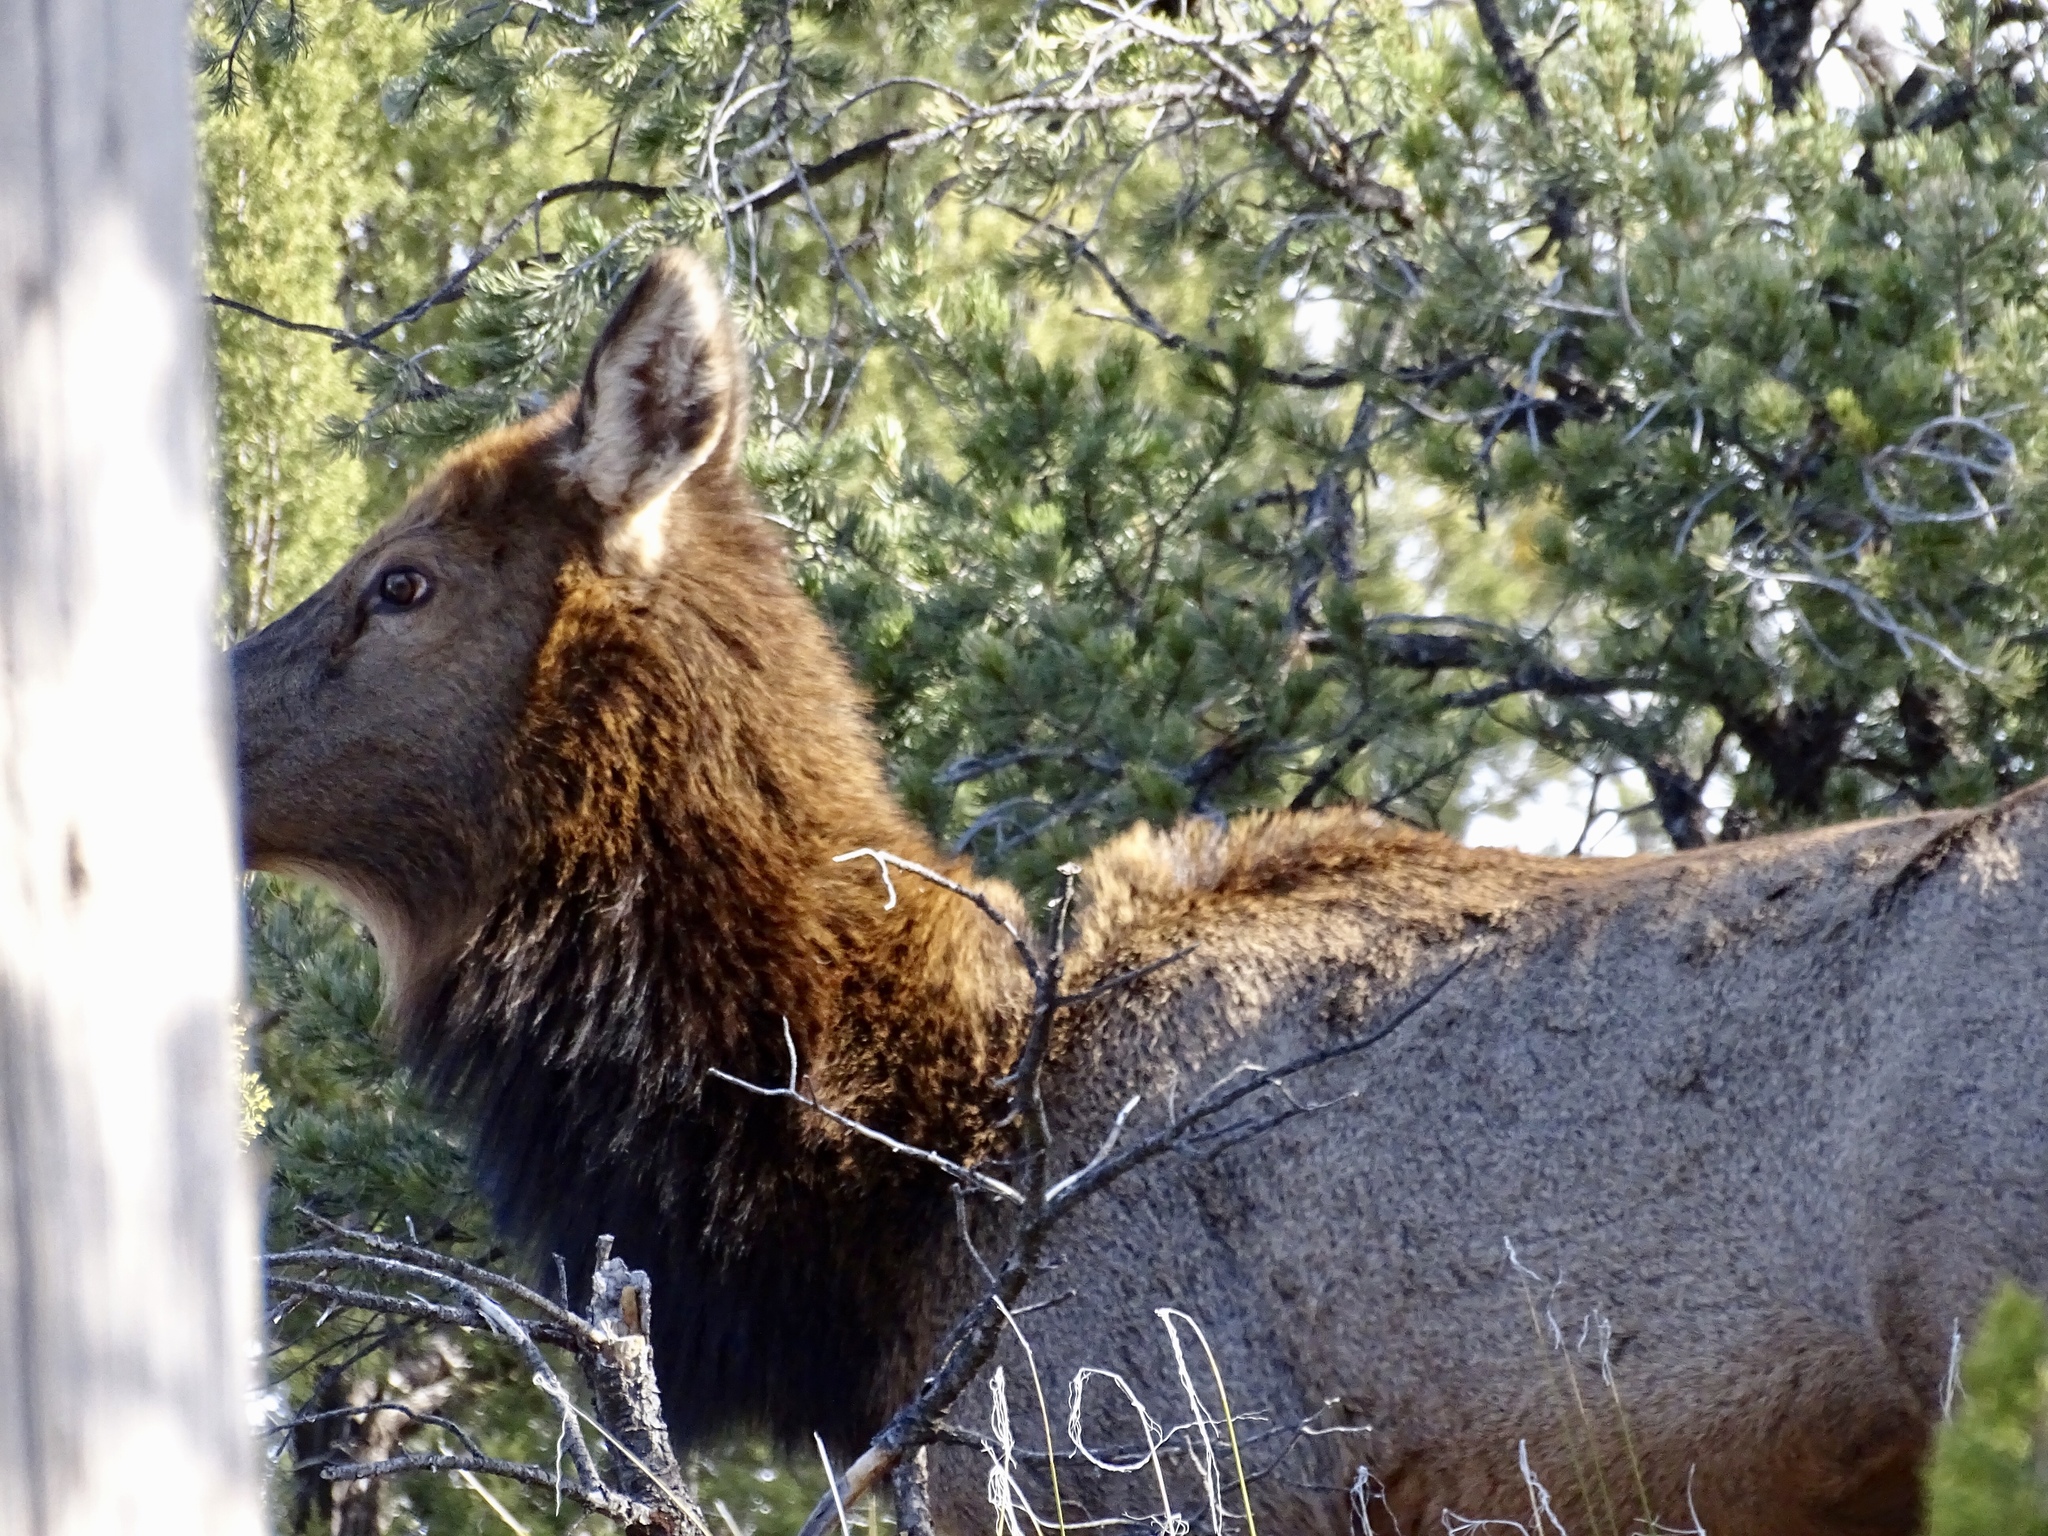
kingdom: Animalia
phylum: Chordata
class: Mammalia
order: Artiodactyla
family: Cervidae
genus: Cervus
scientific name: Cervus elaphus
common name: Red deer
